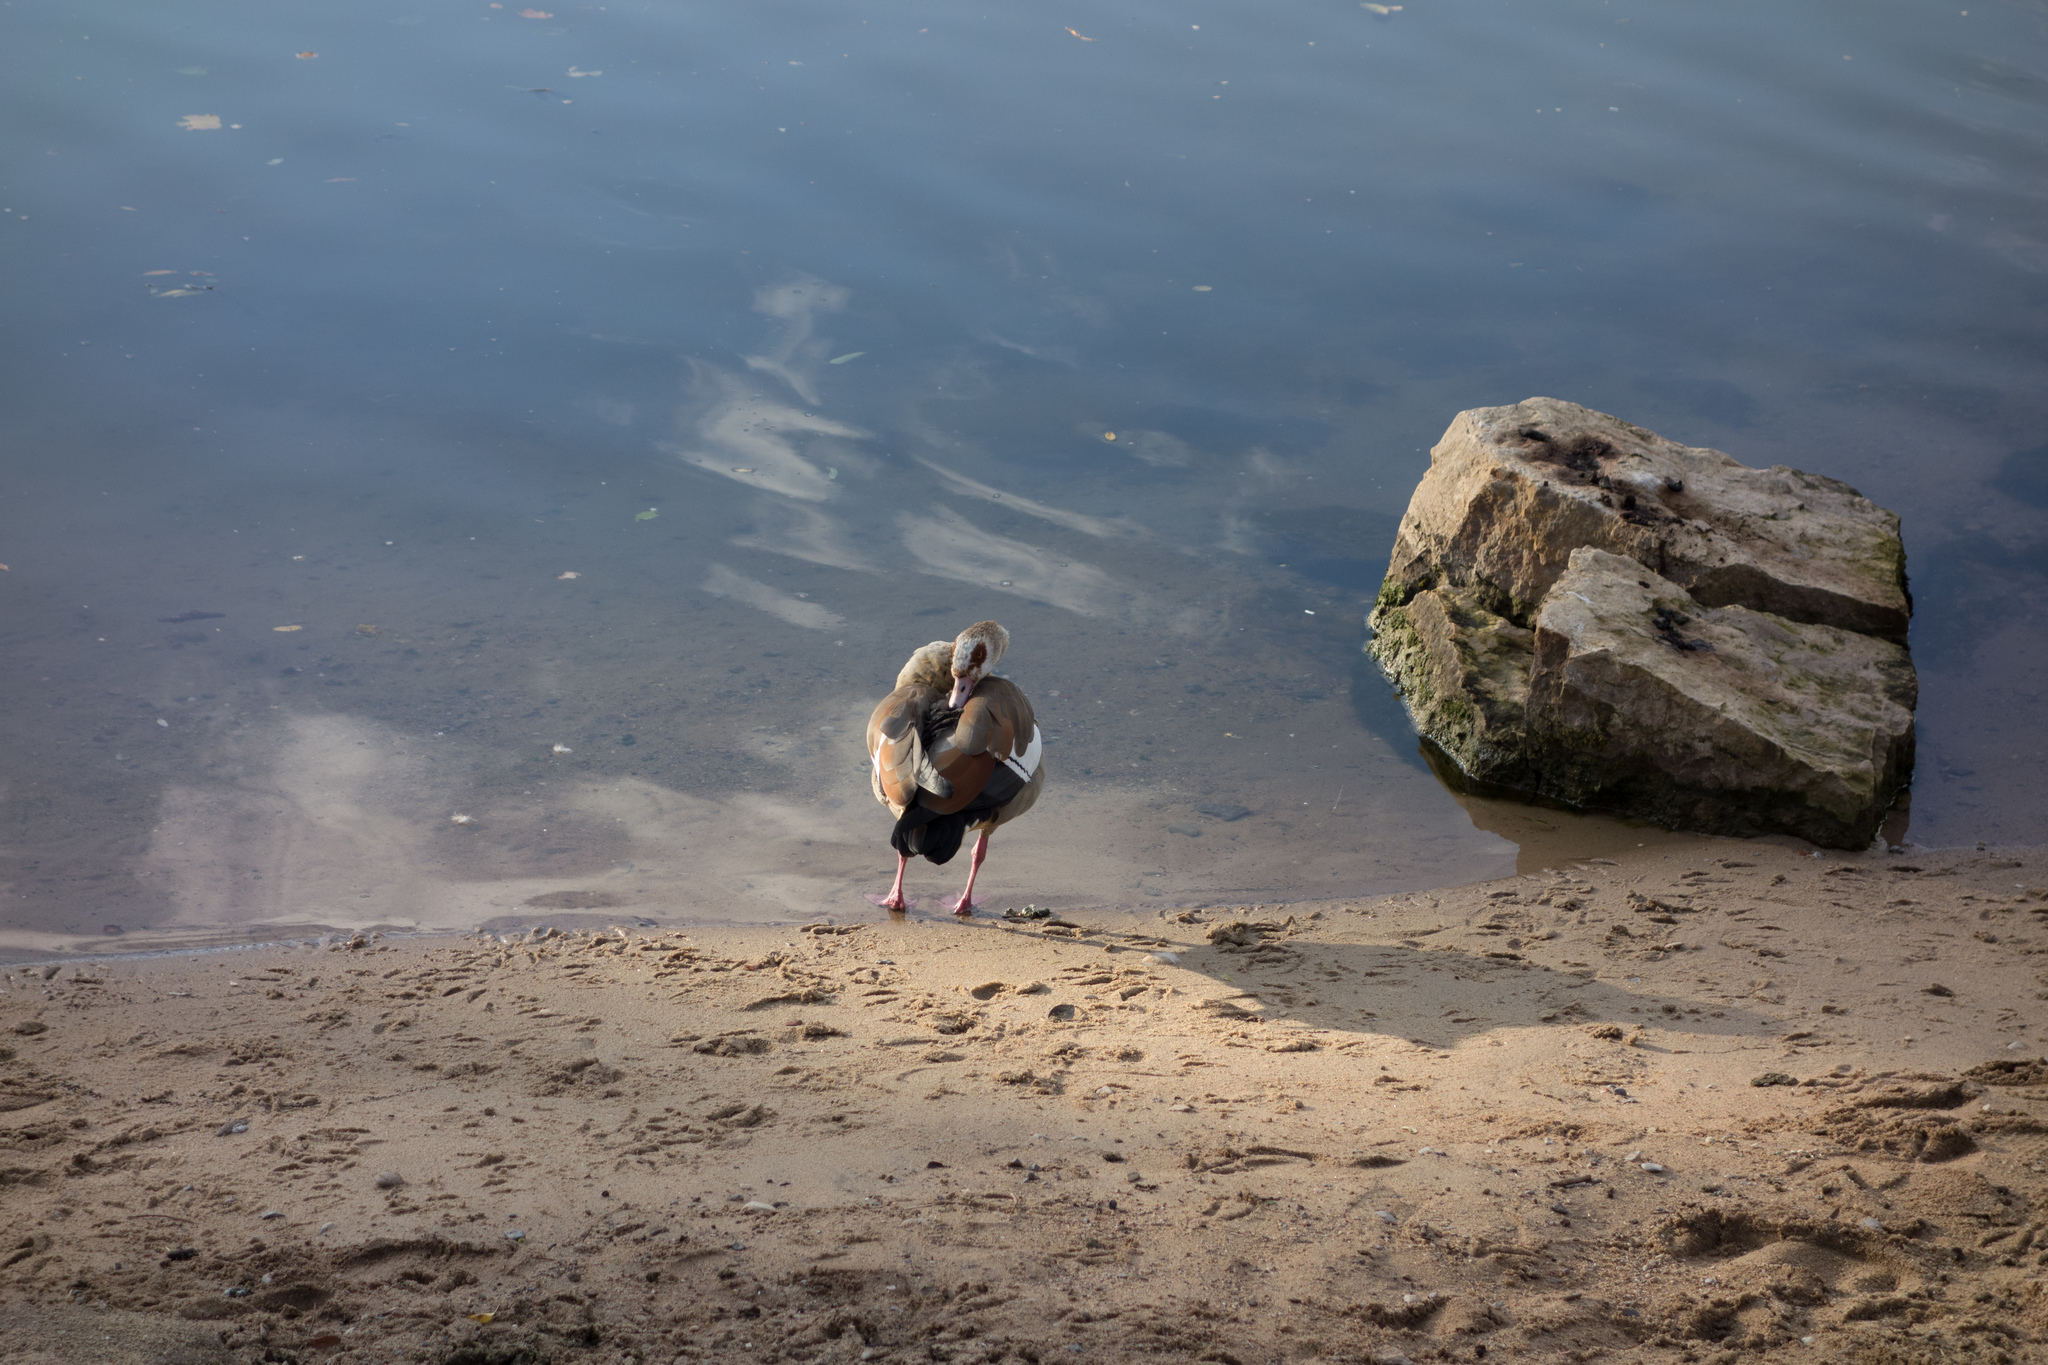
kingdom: Animalia
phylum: Chordata
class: Aves
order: Anseriformes
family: Anatidae
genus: Alopochen
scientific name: Alopochen aegyptiaca
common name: Egyptian goose
